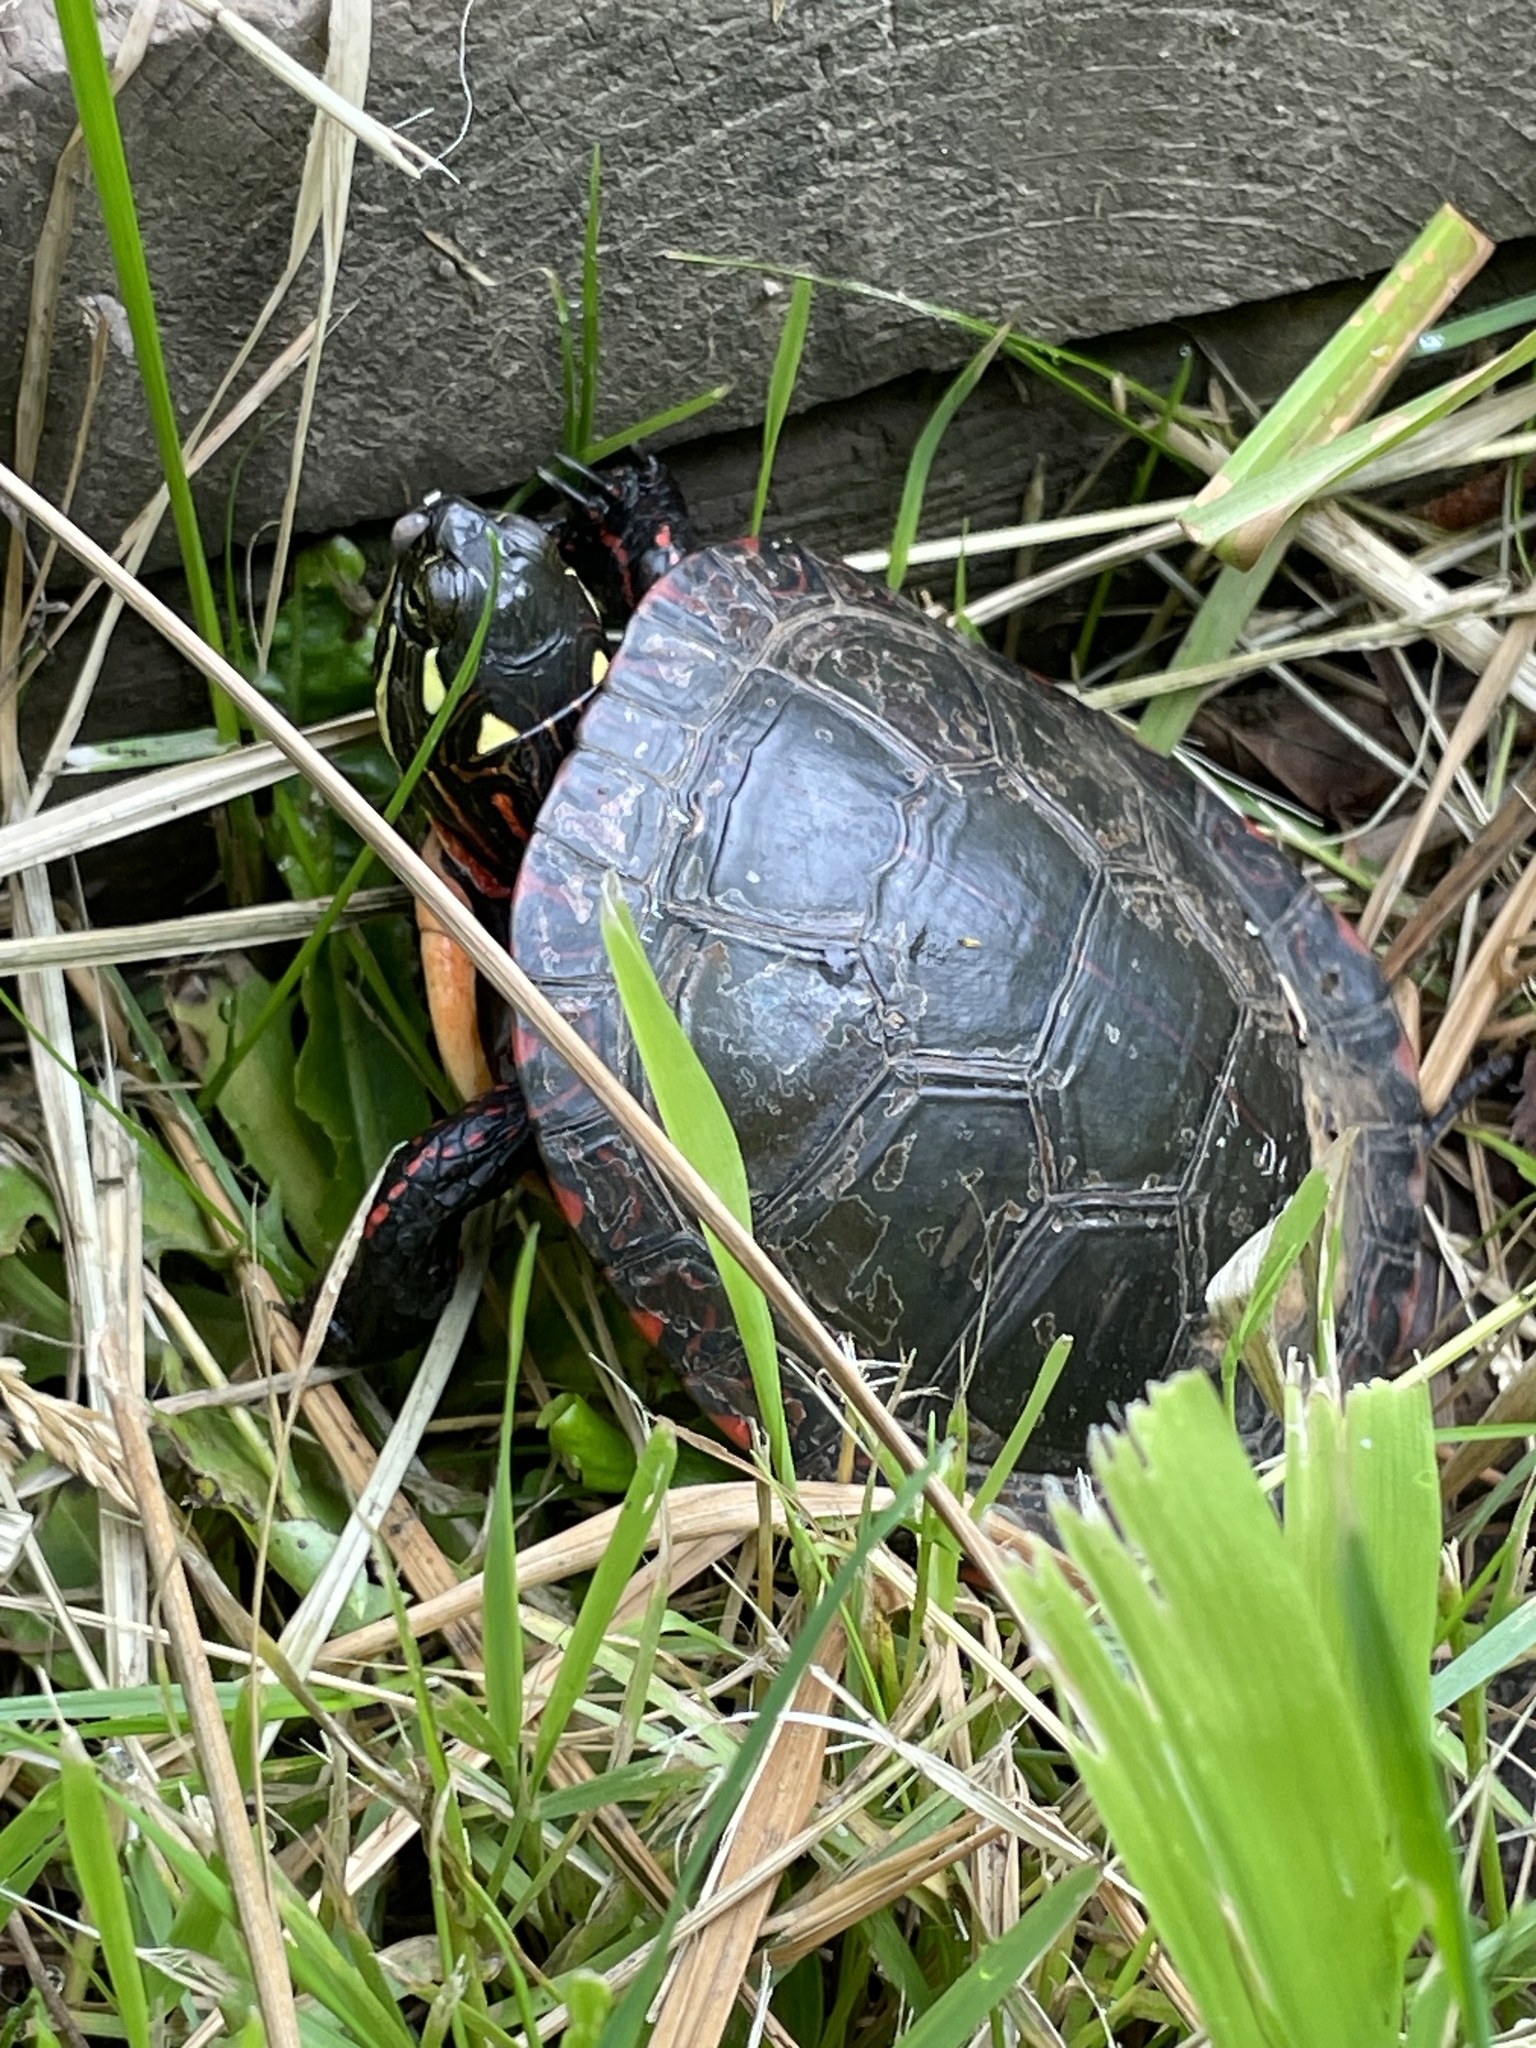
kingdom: Animalia
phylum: Chordata
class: Testudines
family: Emydidae
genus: Chrysemys
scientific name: Chrysemys picta
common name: Painted turtle
